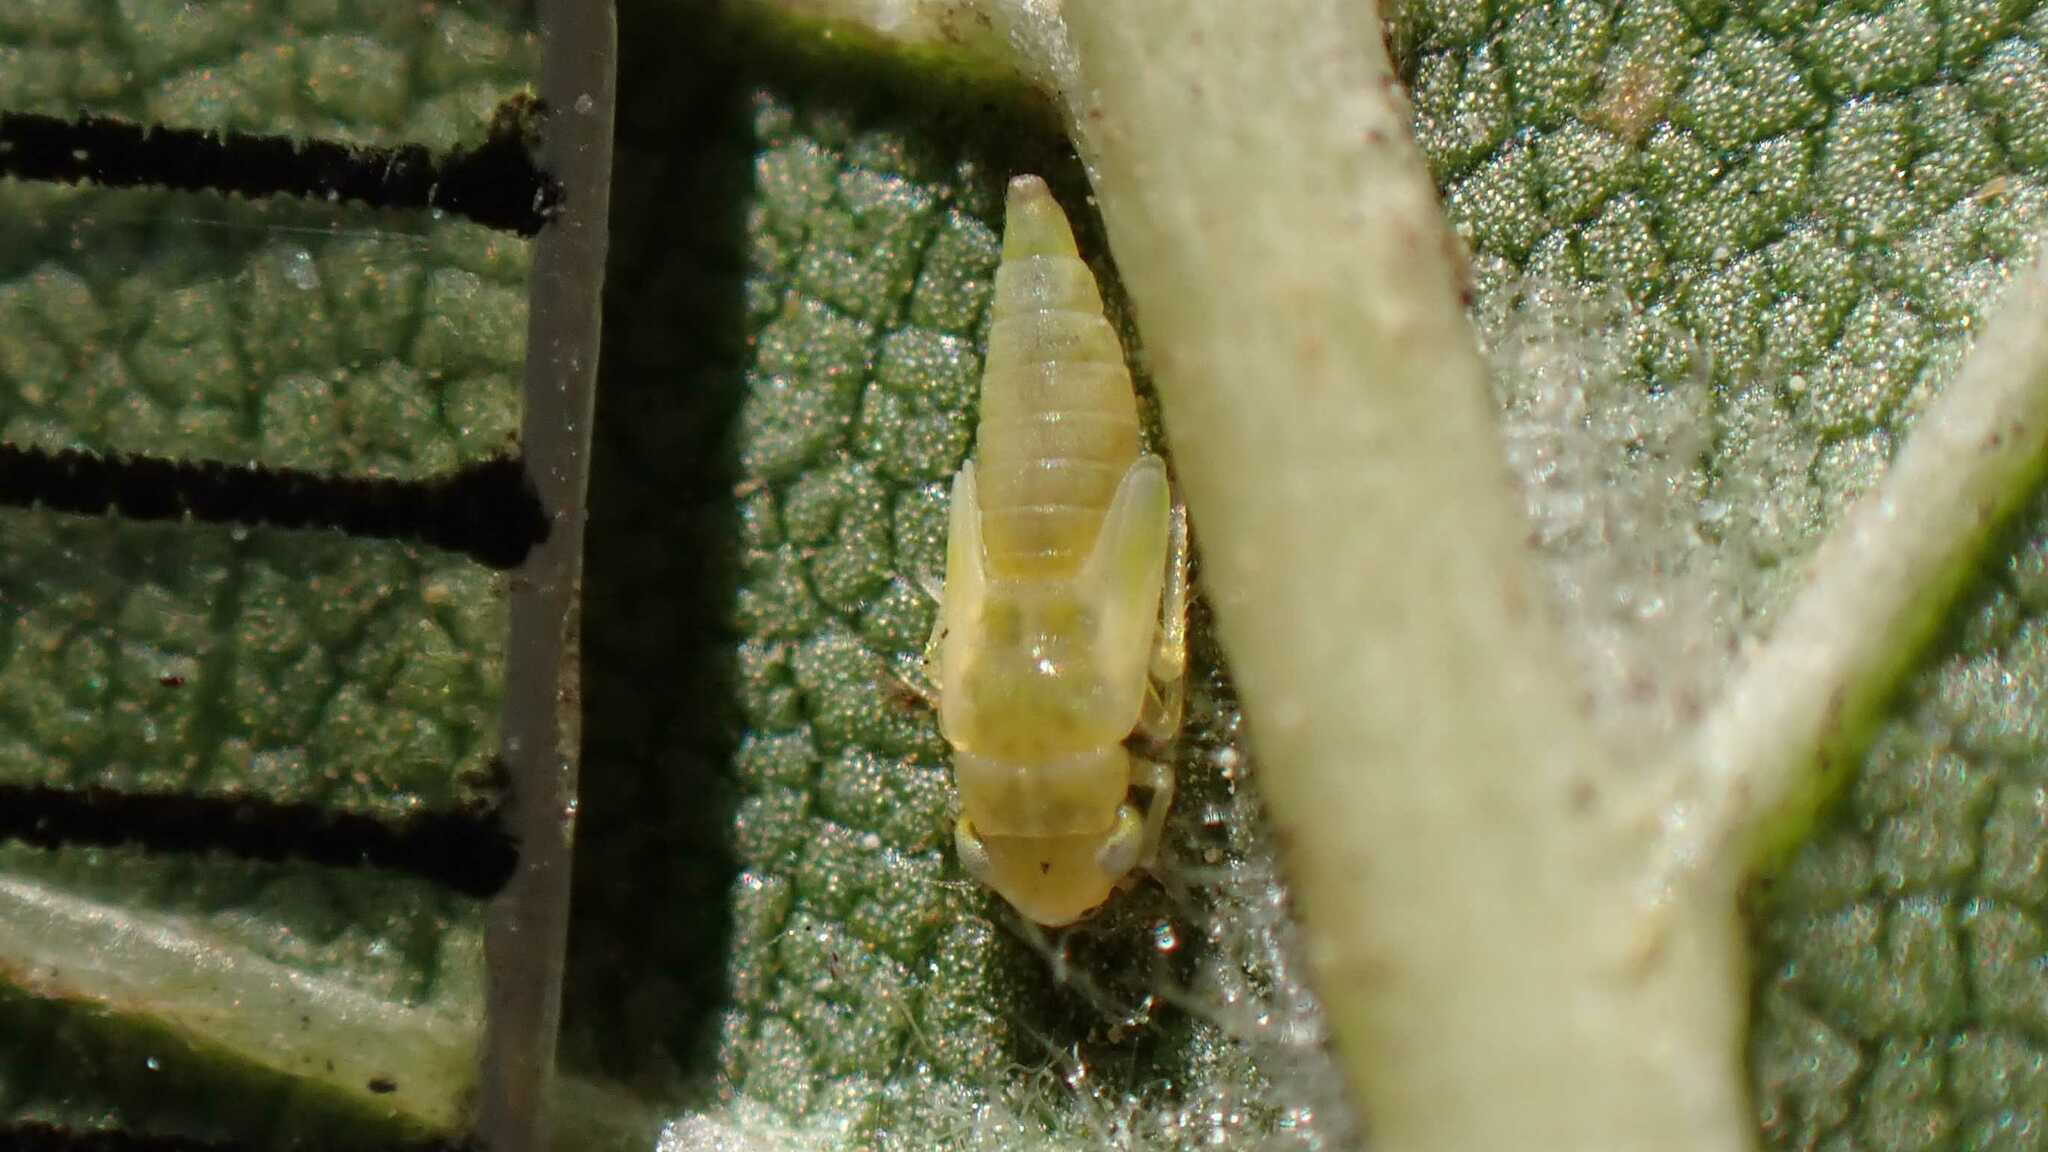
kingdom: Animalia
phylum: Arthropoda
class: Insecta
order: Hemiptera
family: Cicadellidae
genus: Tautoneura
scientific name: Tautoneura polymitusa
